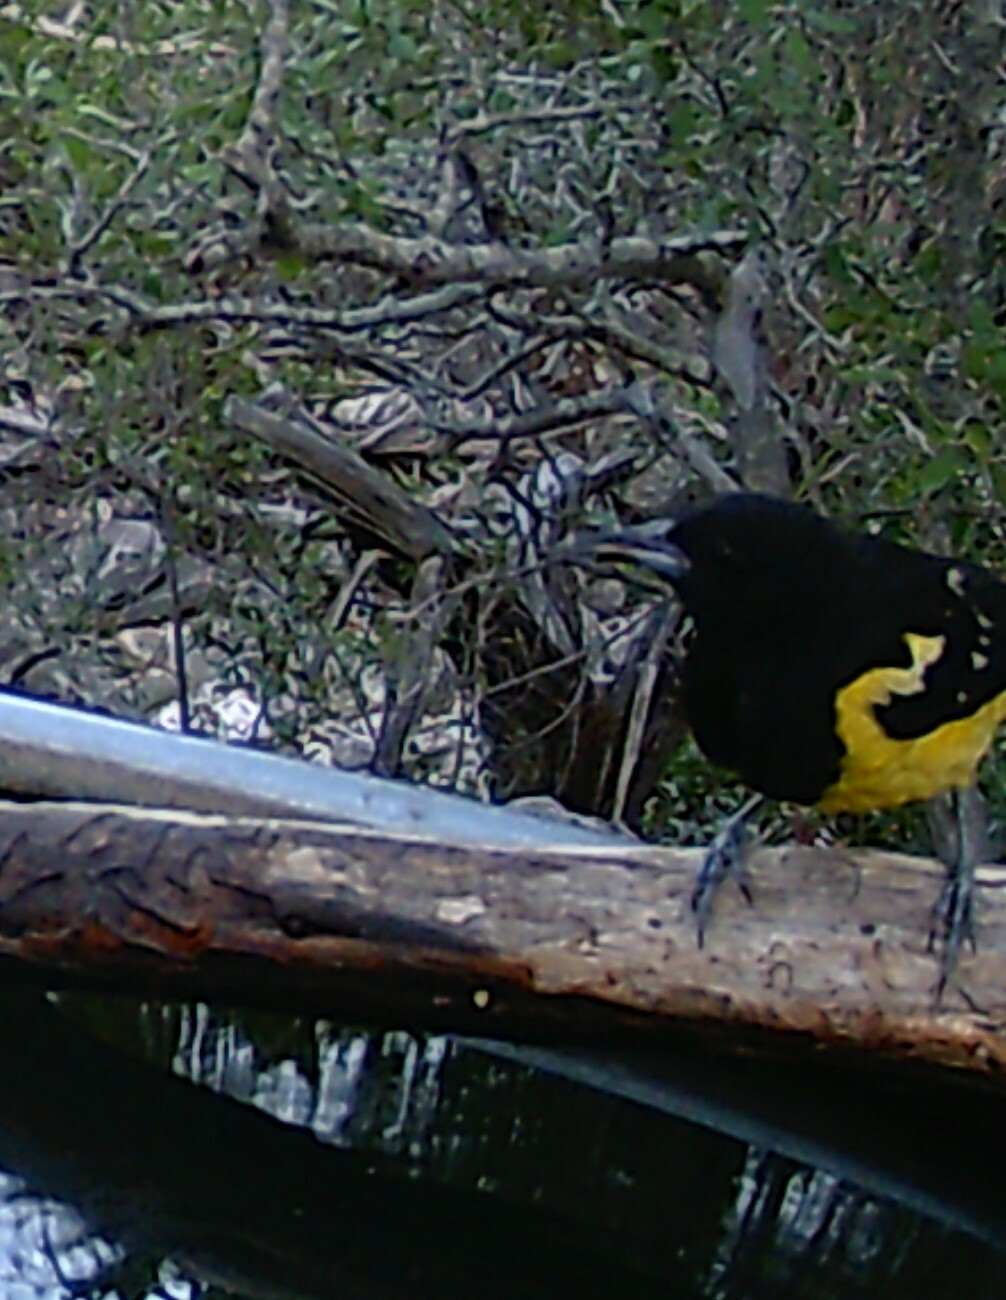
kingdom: Animalia
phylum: Chordata
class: Aves
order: Passeriformes
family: Icteridae
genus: Icterus
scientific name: Icterus parisorum
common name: Scott's oriole
